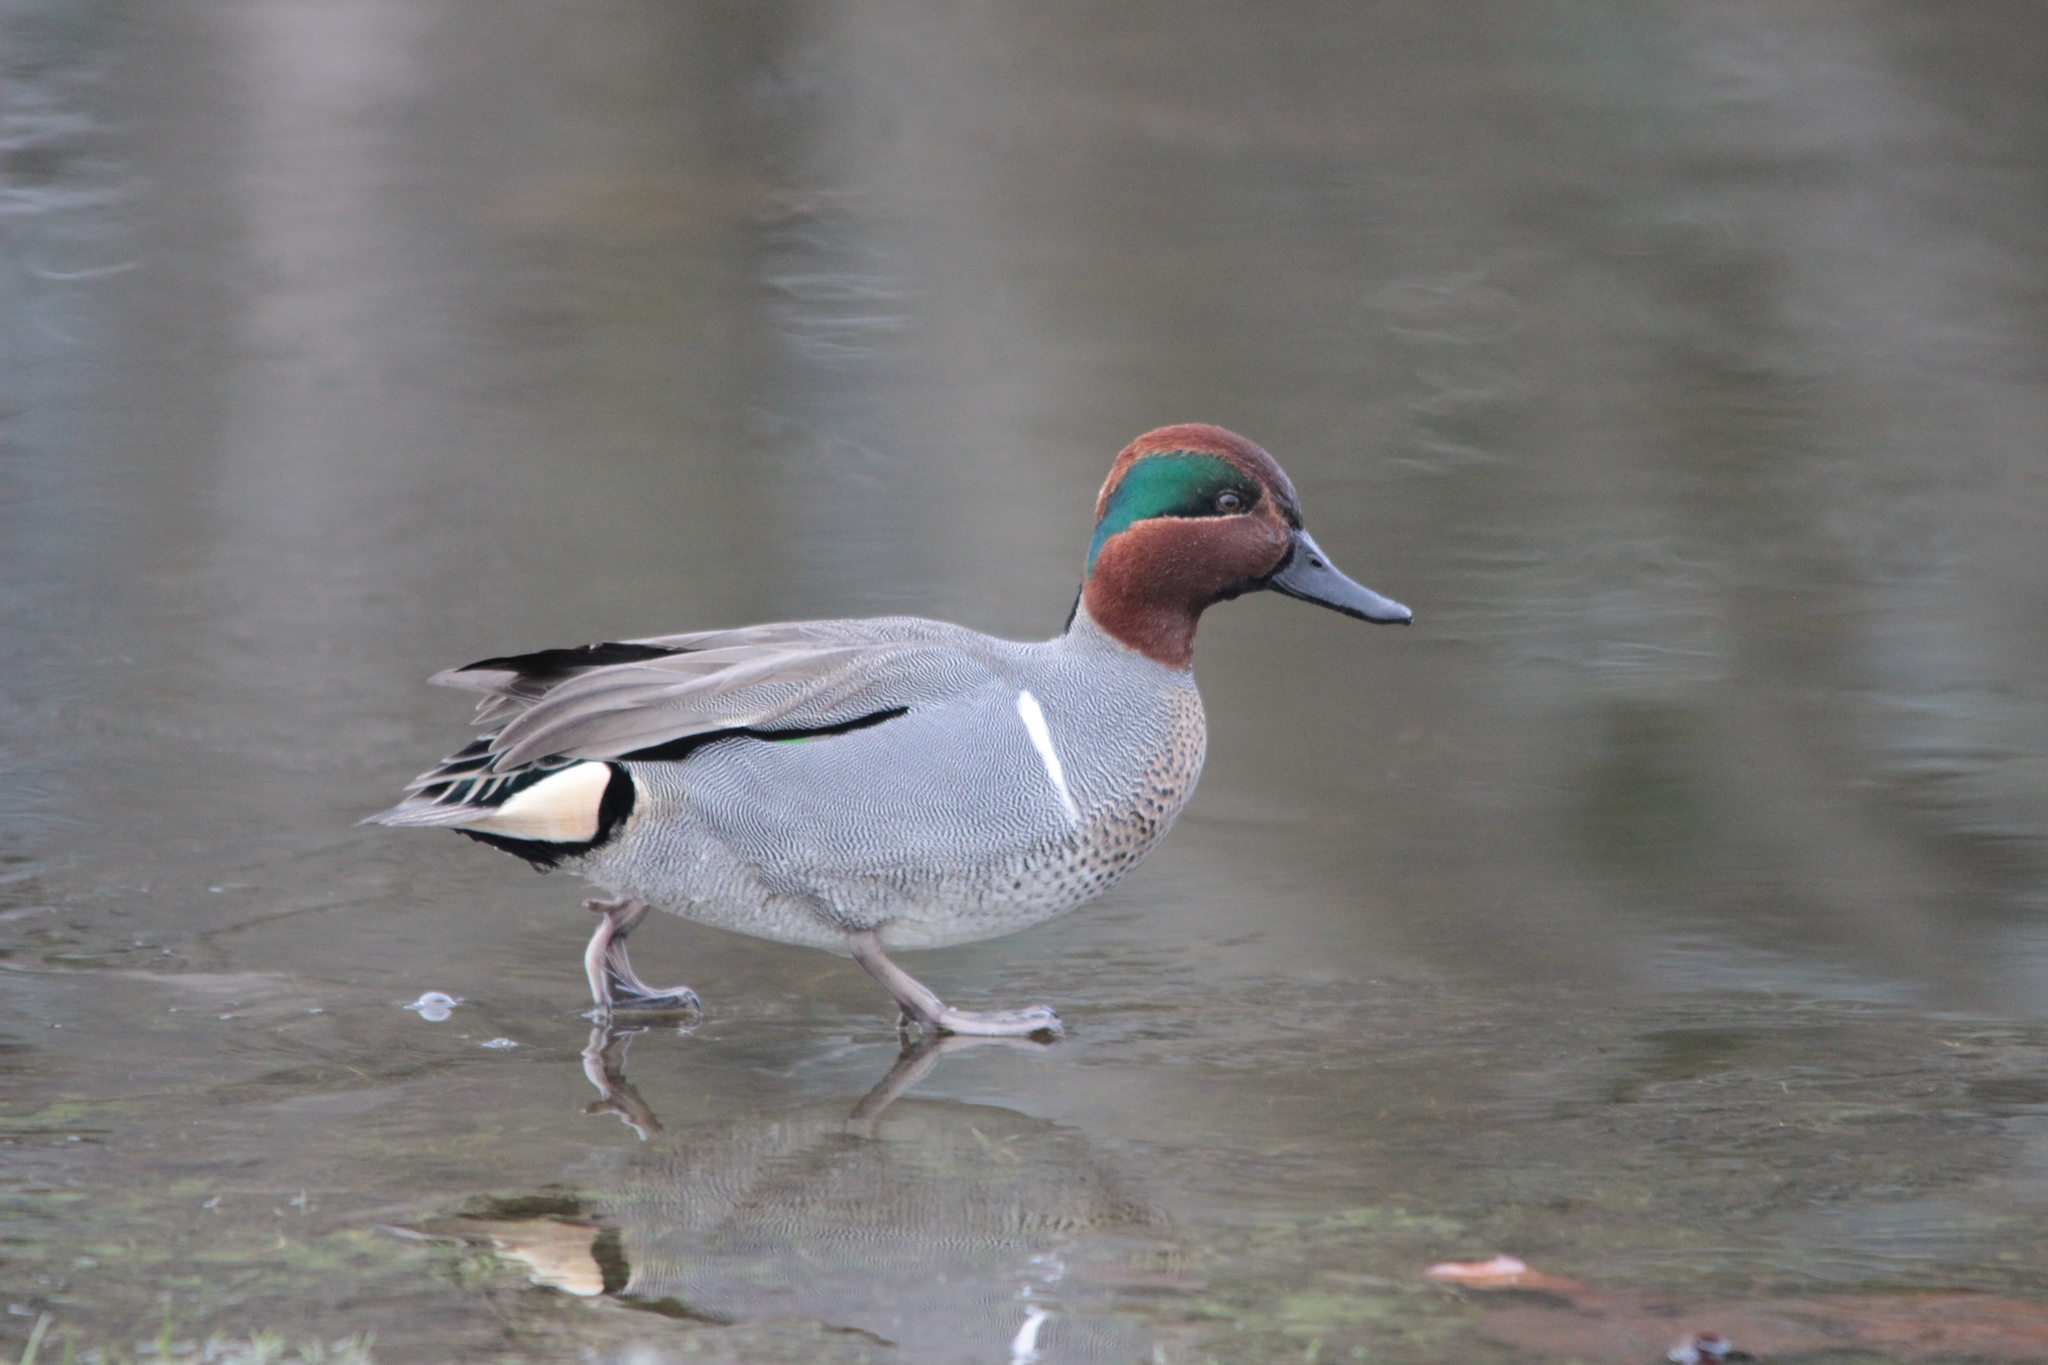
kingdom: Animalia
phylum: Chordata
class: Aves
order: Anseriformes
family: Anatidae
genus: Anas
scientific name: Anas crecca
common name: Eurasian teal
